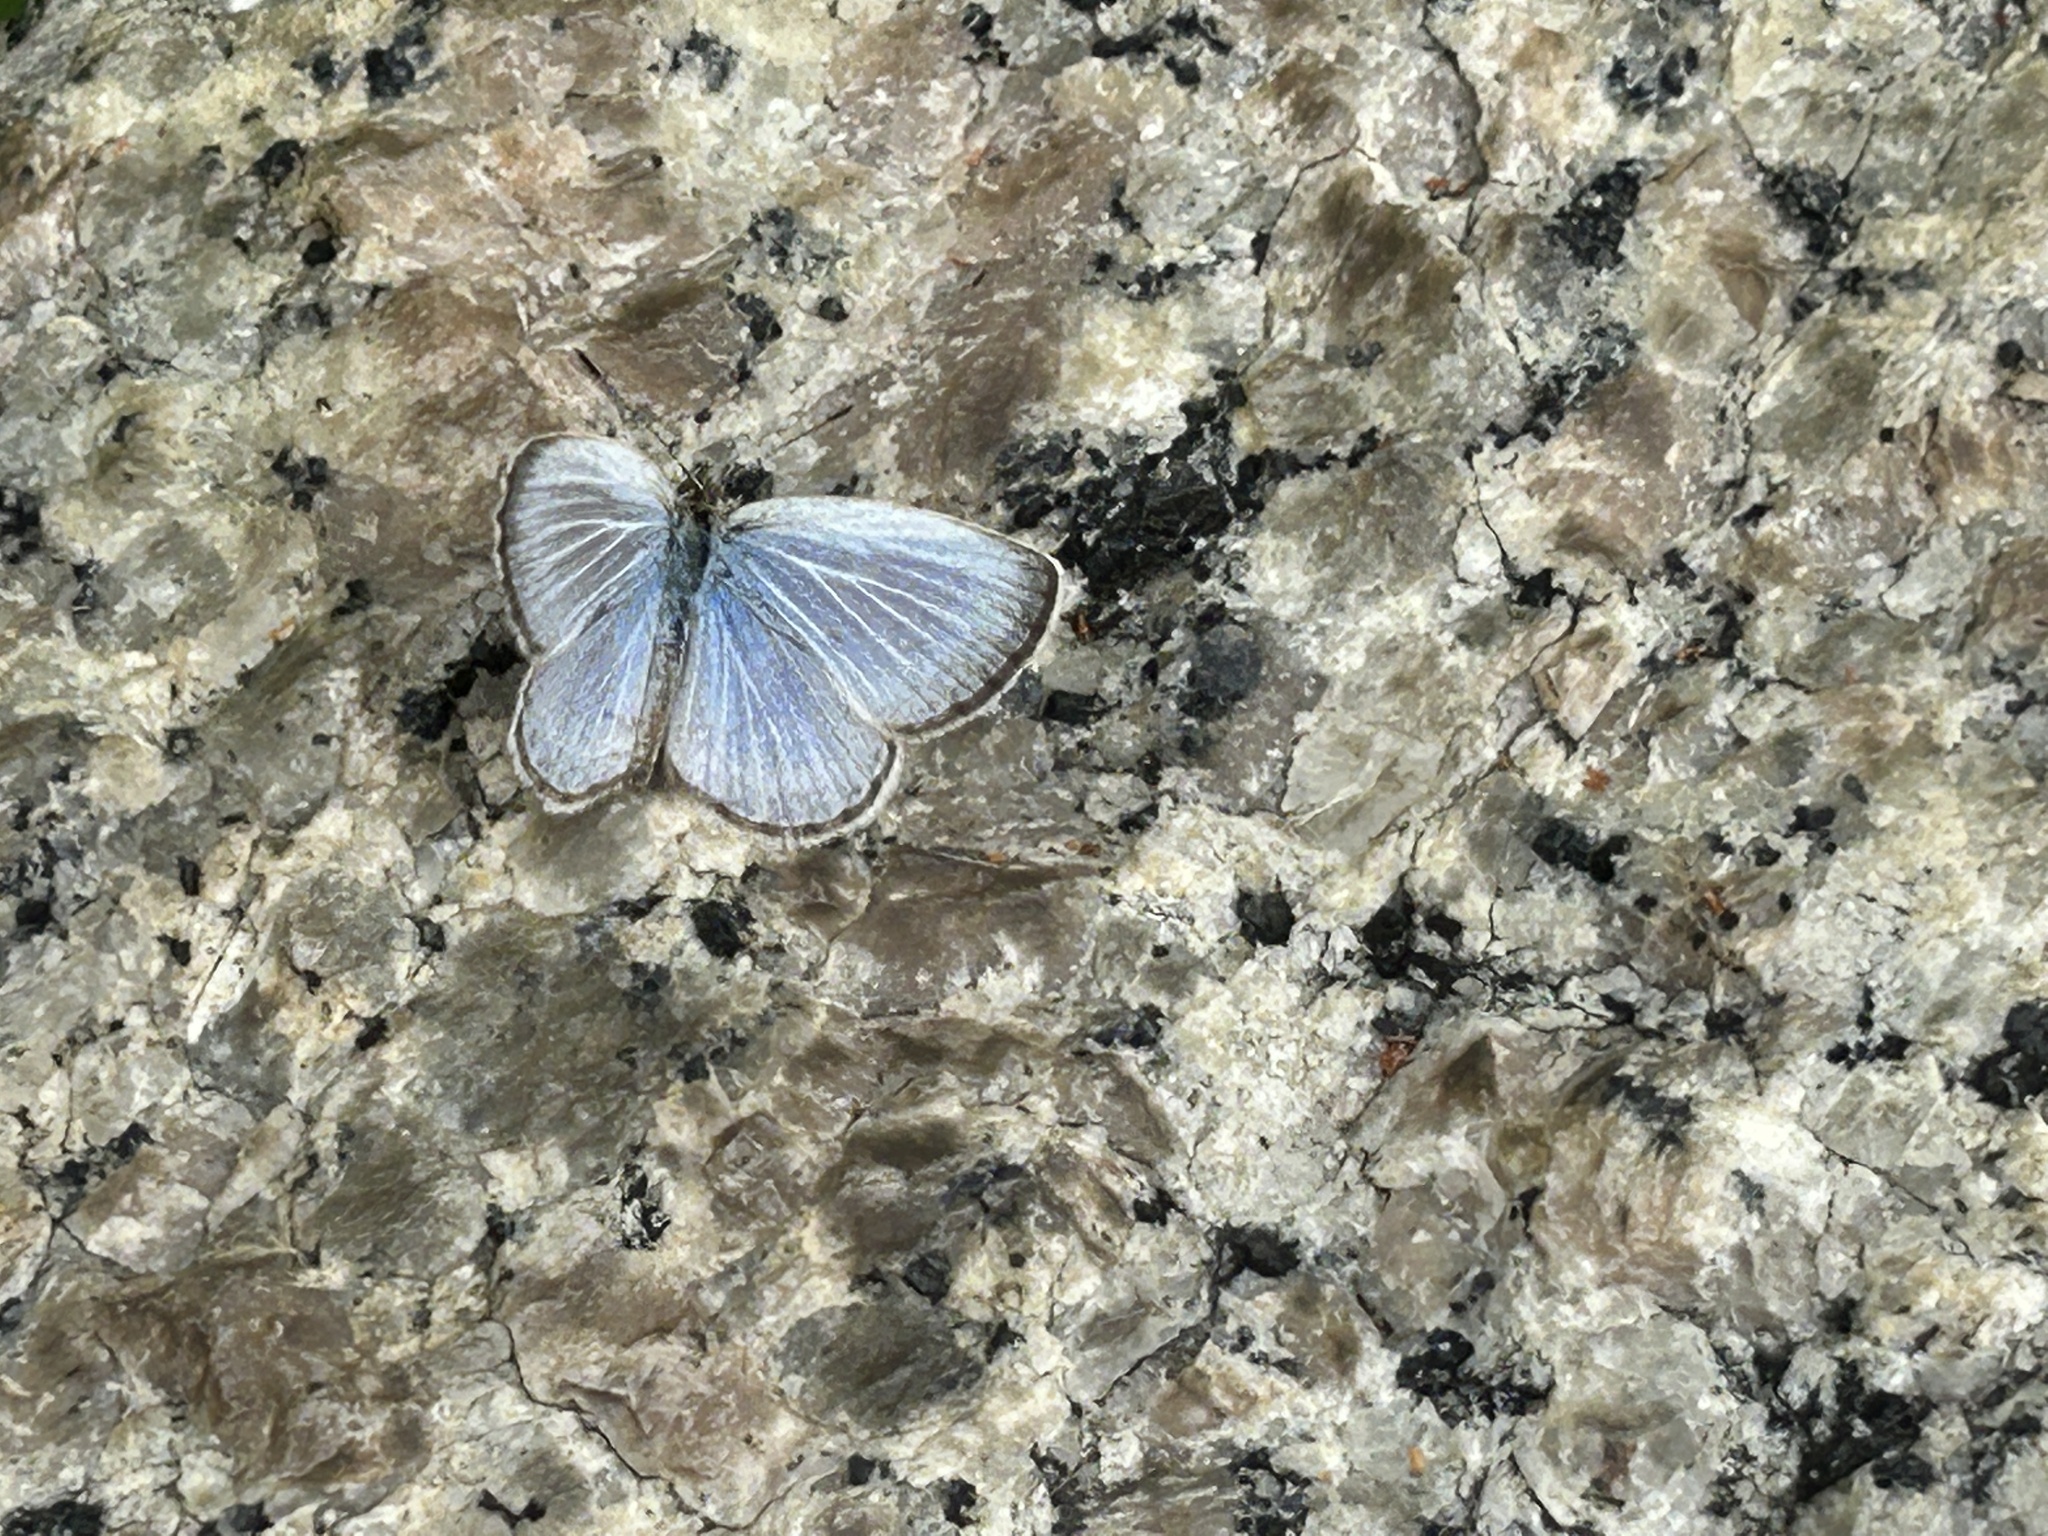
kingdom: Animalia
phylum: Arthropoda
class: Insecta
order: Lepidoptera
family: Lycaenidae
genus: Pseudozizeeria
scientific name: Pseudozizeeria maha
